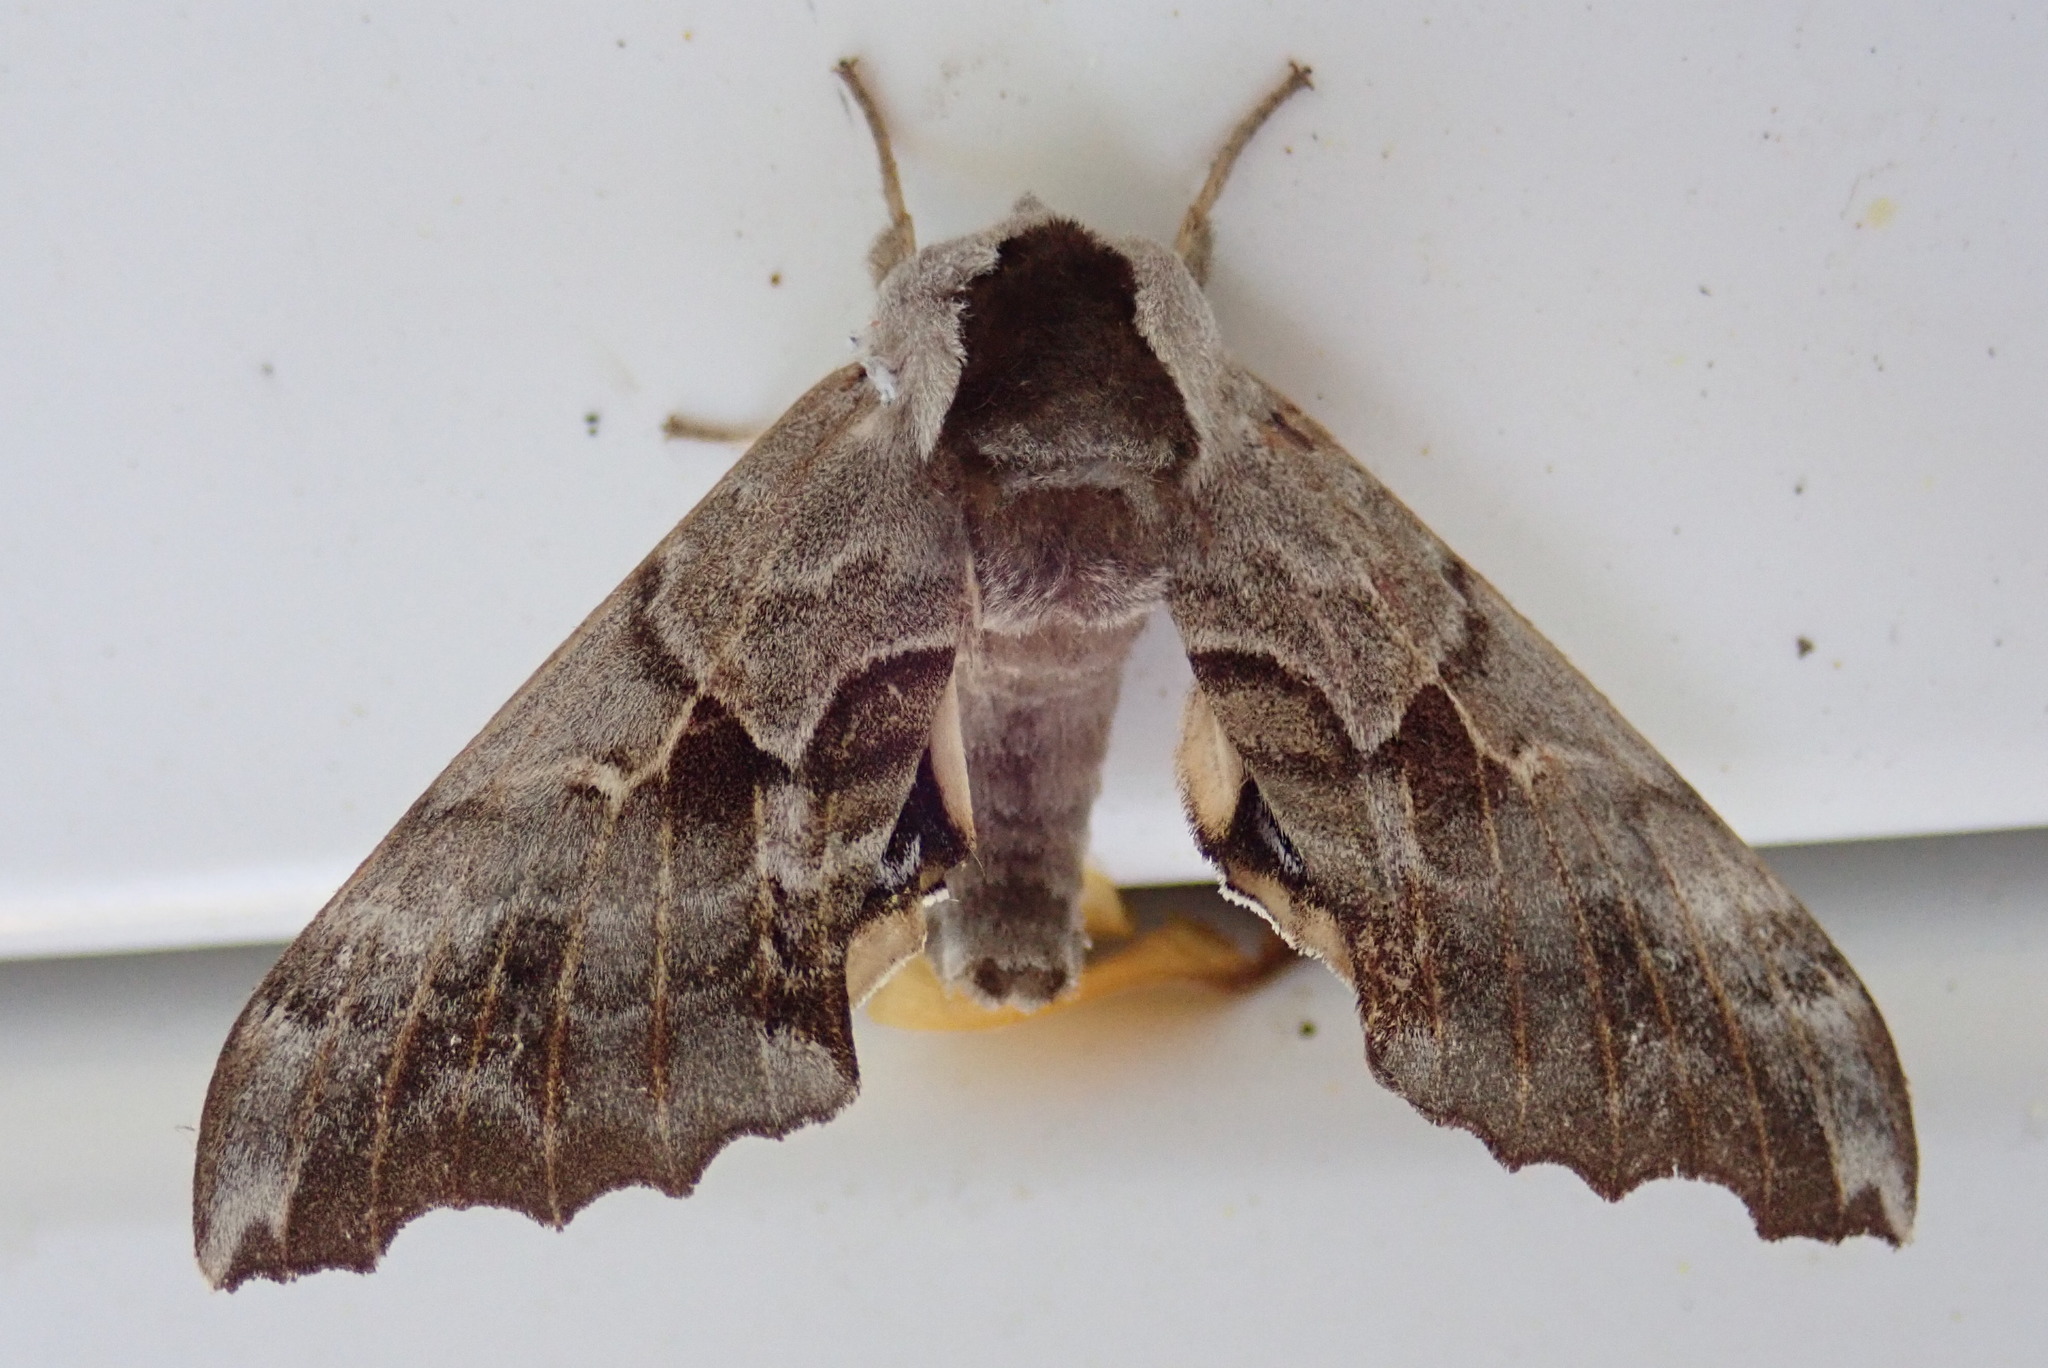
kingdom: Animalia
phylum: Arthropoda
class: Insecta
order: Lepidoptera
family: Sphingidae
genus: Smerinthus
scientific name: Smerinthus cerisyi
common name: Cerisy's sphinx moth
